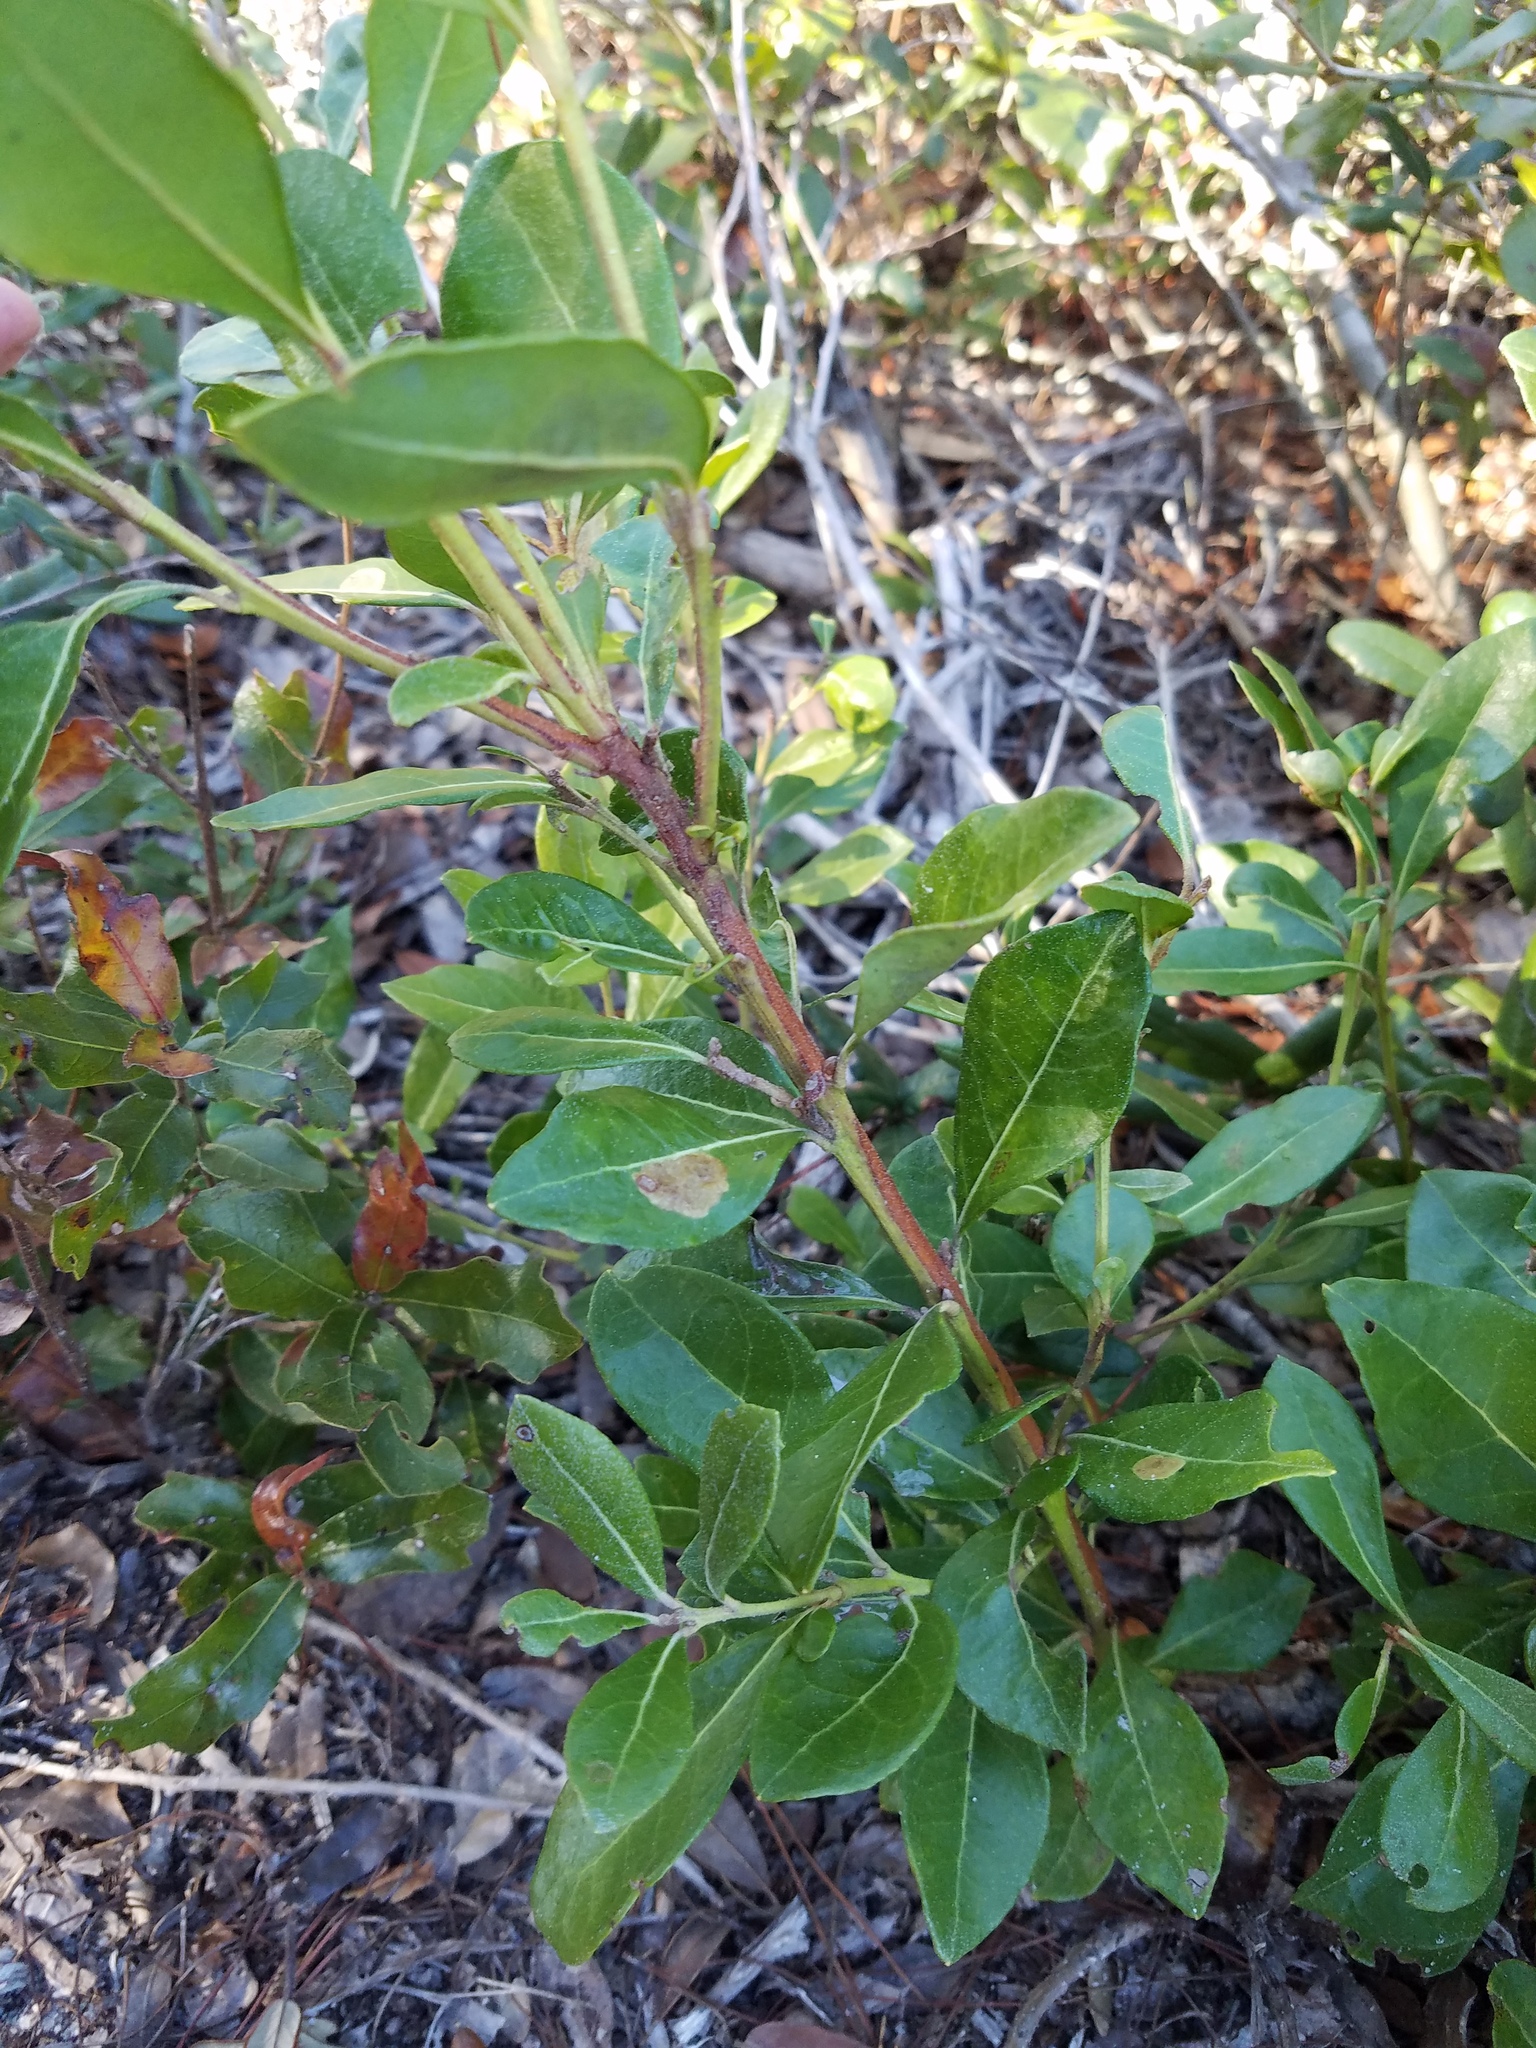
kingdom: Plantae
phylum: Tracheophyta
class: Magnoliopsida
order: Ericales
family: Ericaceae
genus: Lyonia
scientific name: Lyonia lucida
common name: Fetterbush
